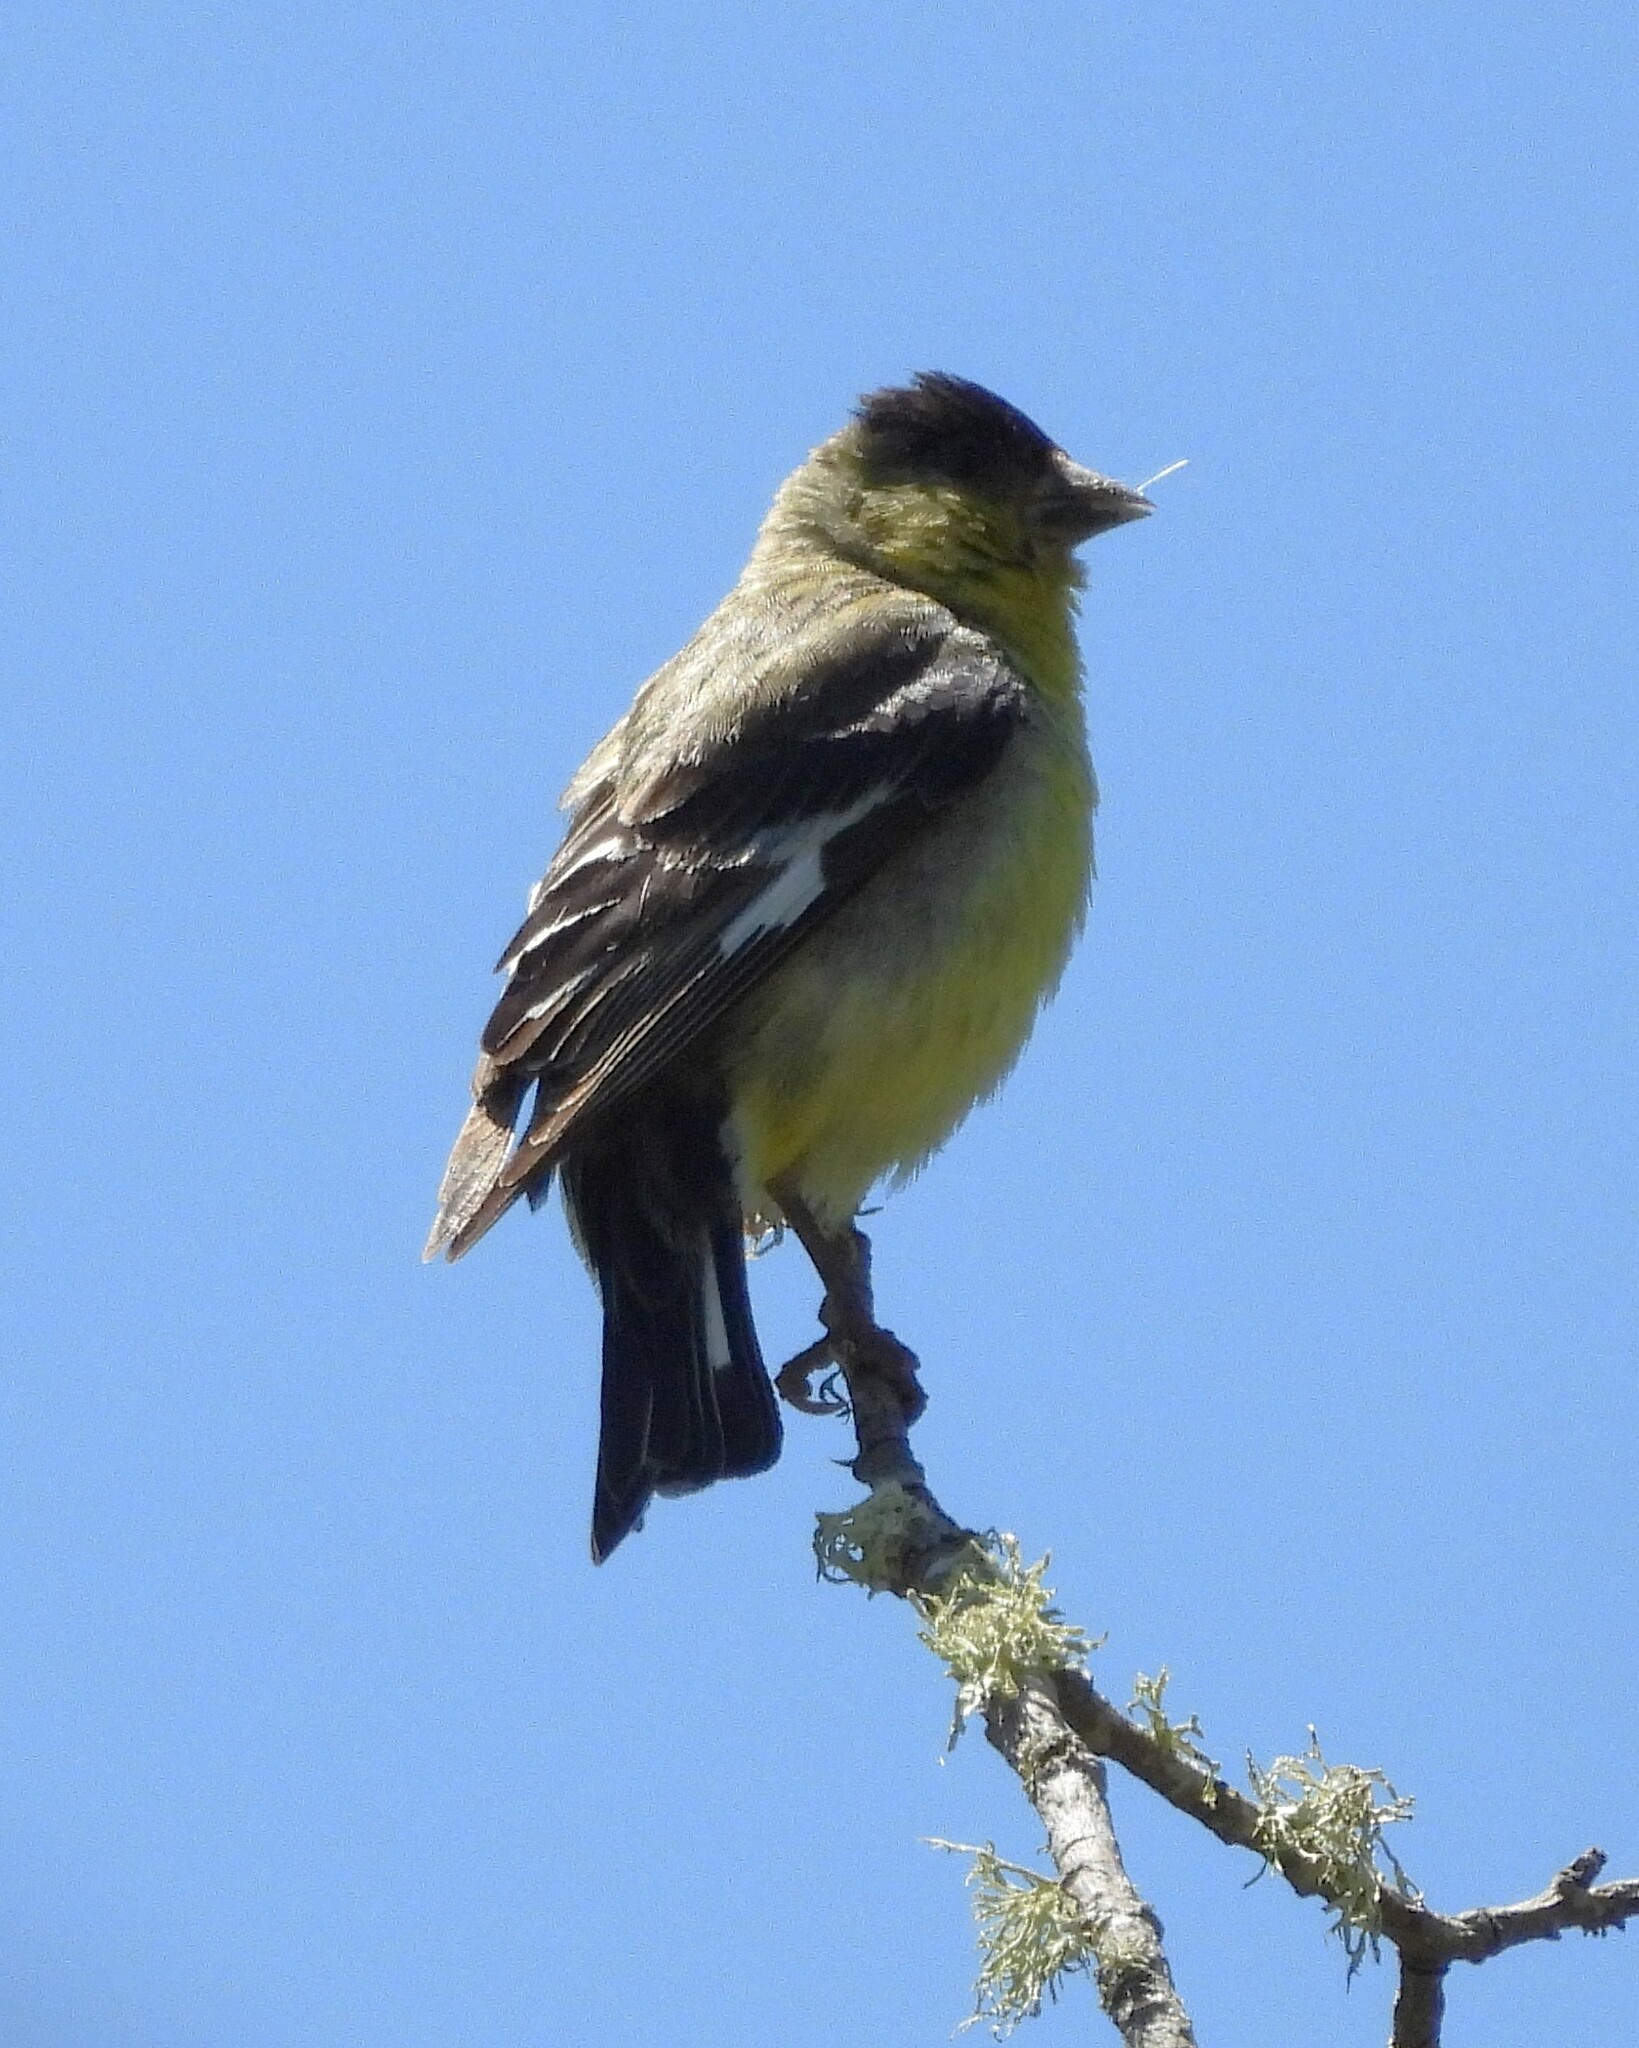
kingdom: Animalia
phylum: Chordata
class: Aves
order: Passeriformes
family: Fringillidae
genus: Spinus
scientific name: Spinus psaltria
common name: Lesser goldfinch
